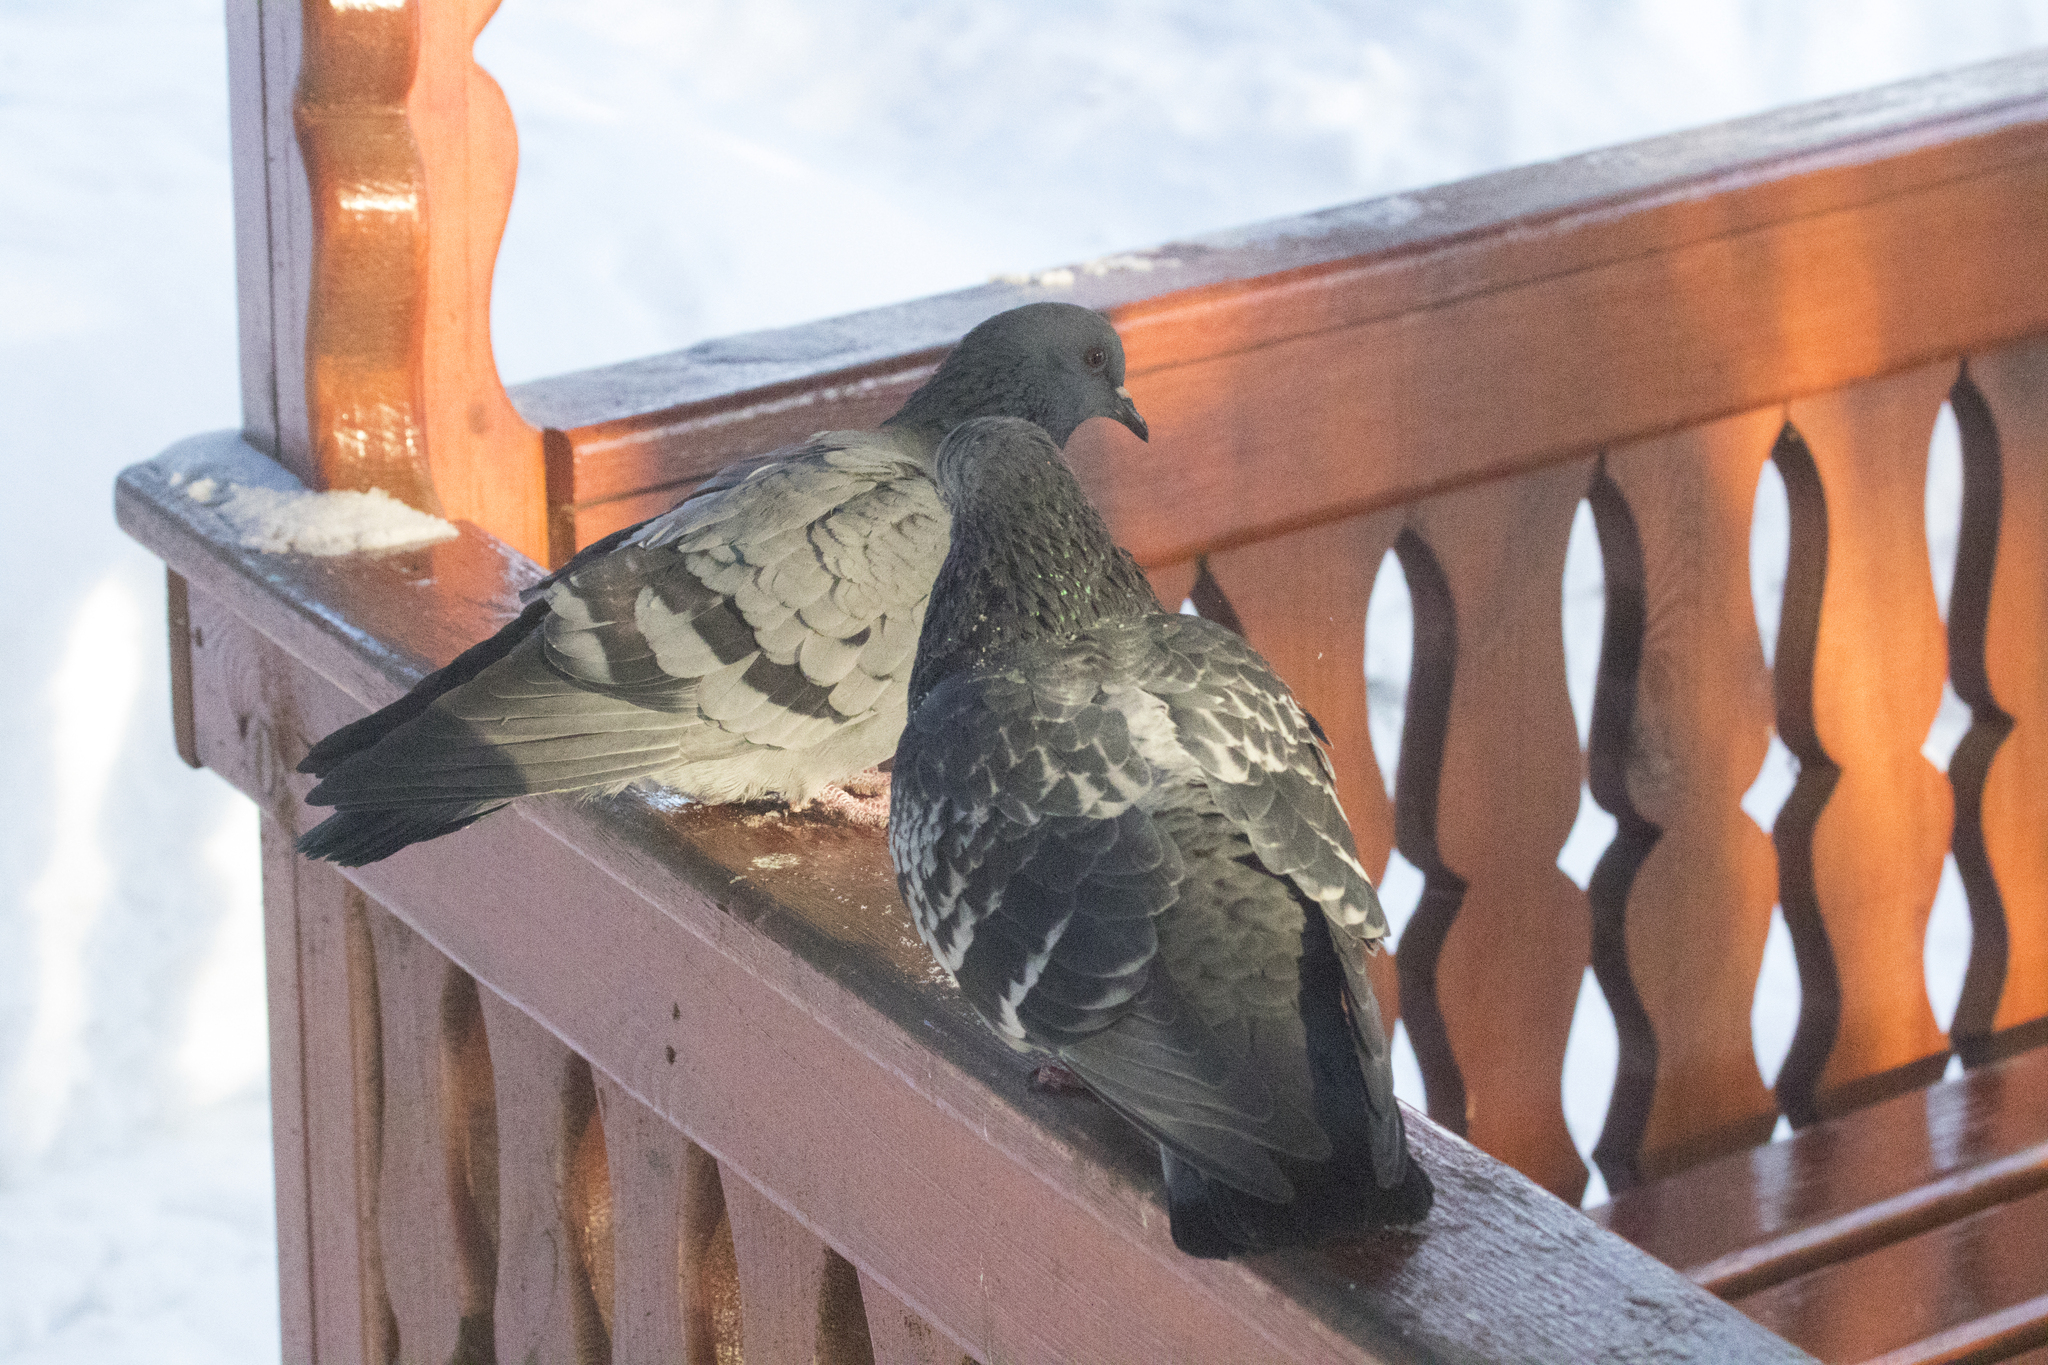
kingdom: Animalia
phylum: Chordata
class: Aves
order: Columbiformes
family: Columbidae
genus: Columba
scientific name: Columba livia
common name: Rock pigeon
